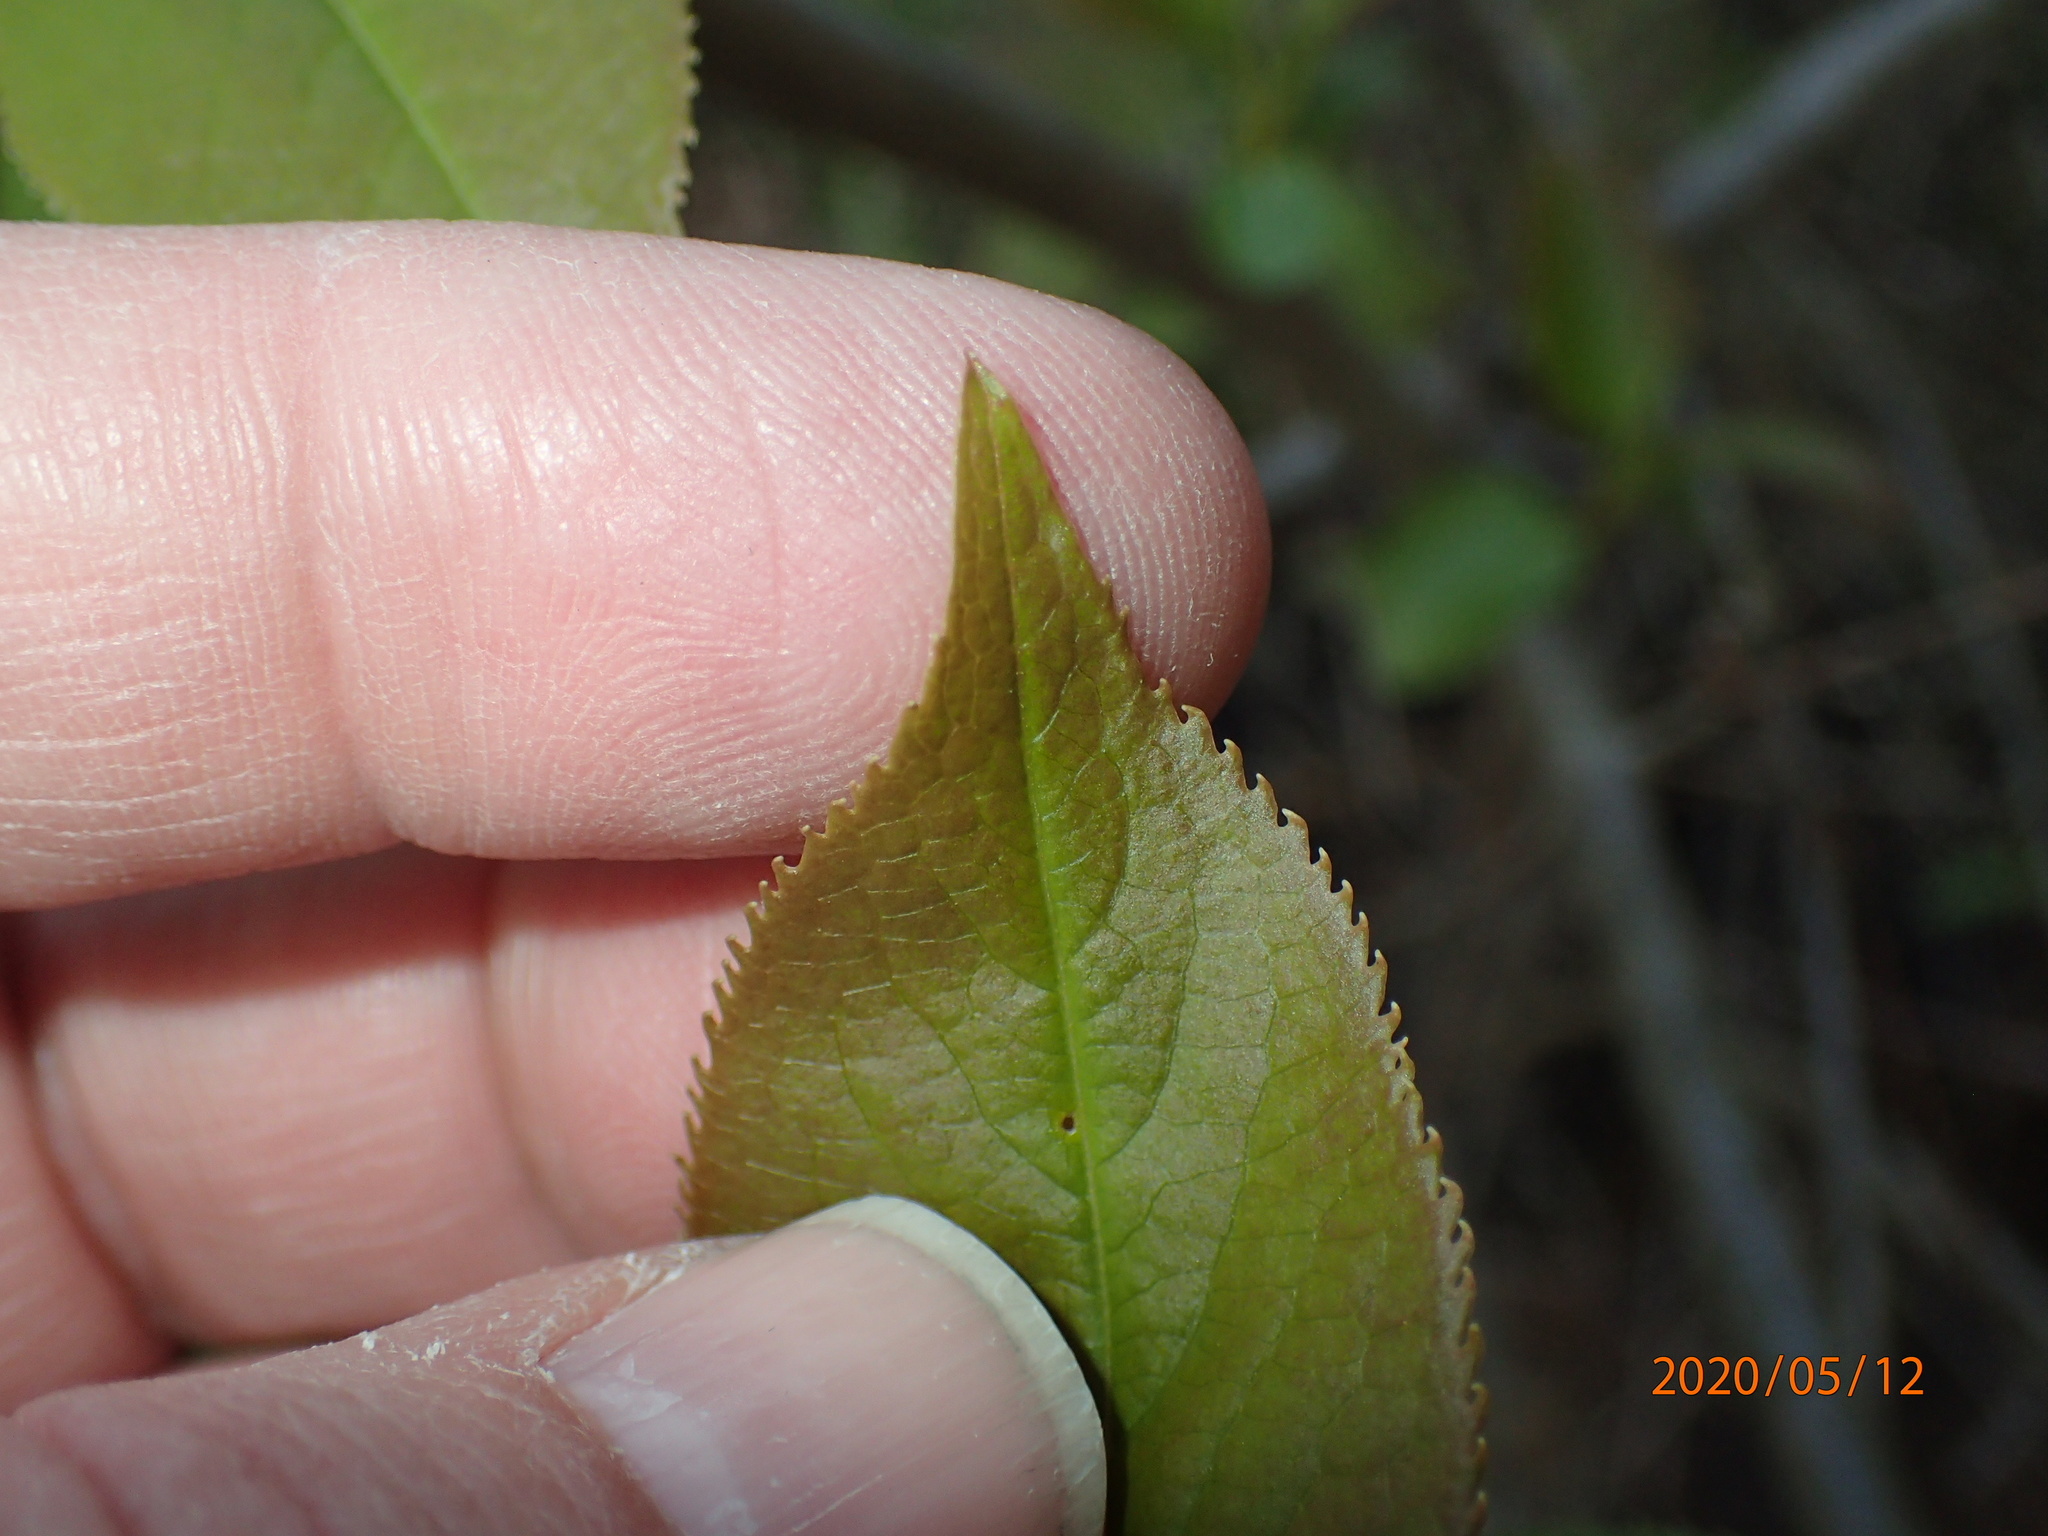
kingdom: Plantae
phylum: Tracheophyta
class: Magnoliopsida
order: Dipsacales
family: Viburnaceae
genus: Viburnum
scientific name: Viburnum lentago
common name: Black haw
